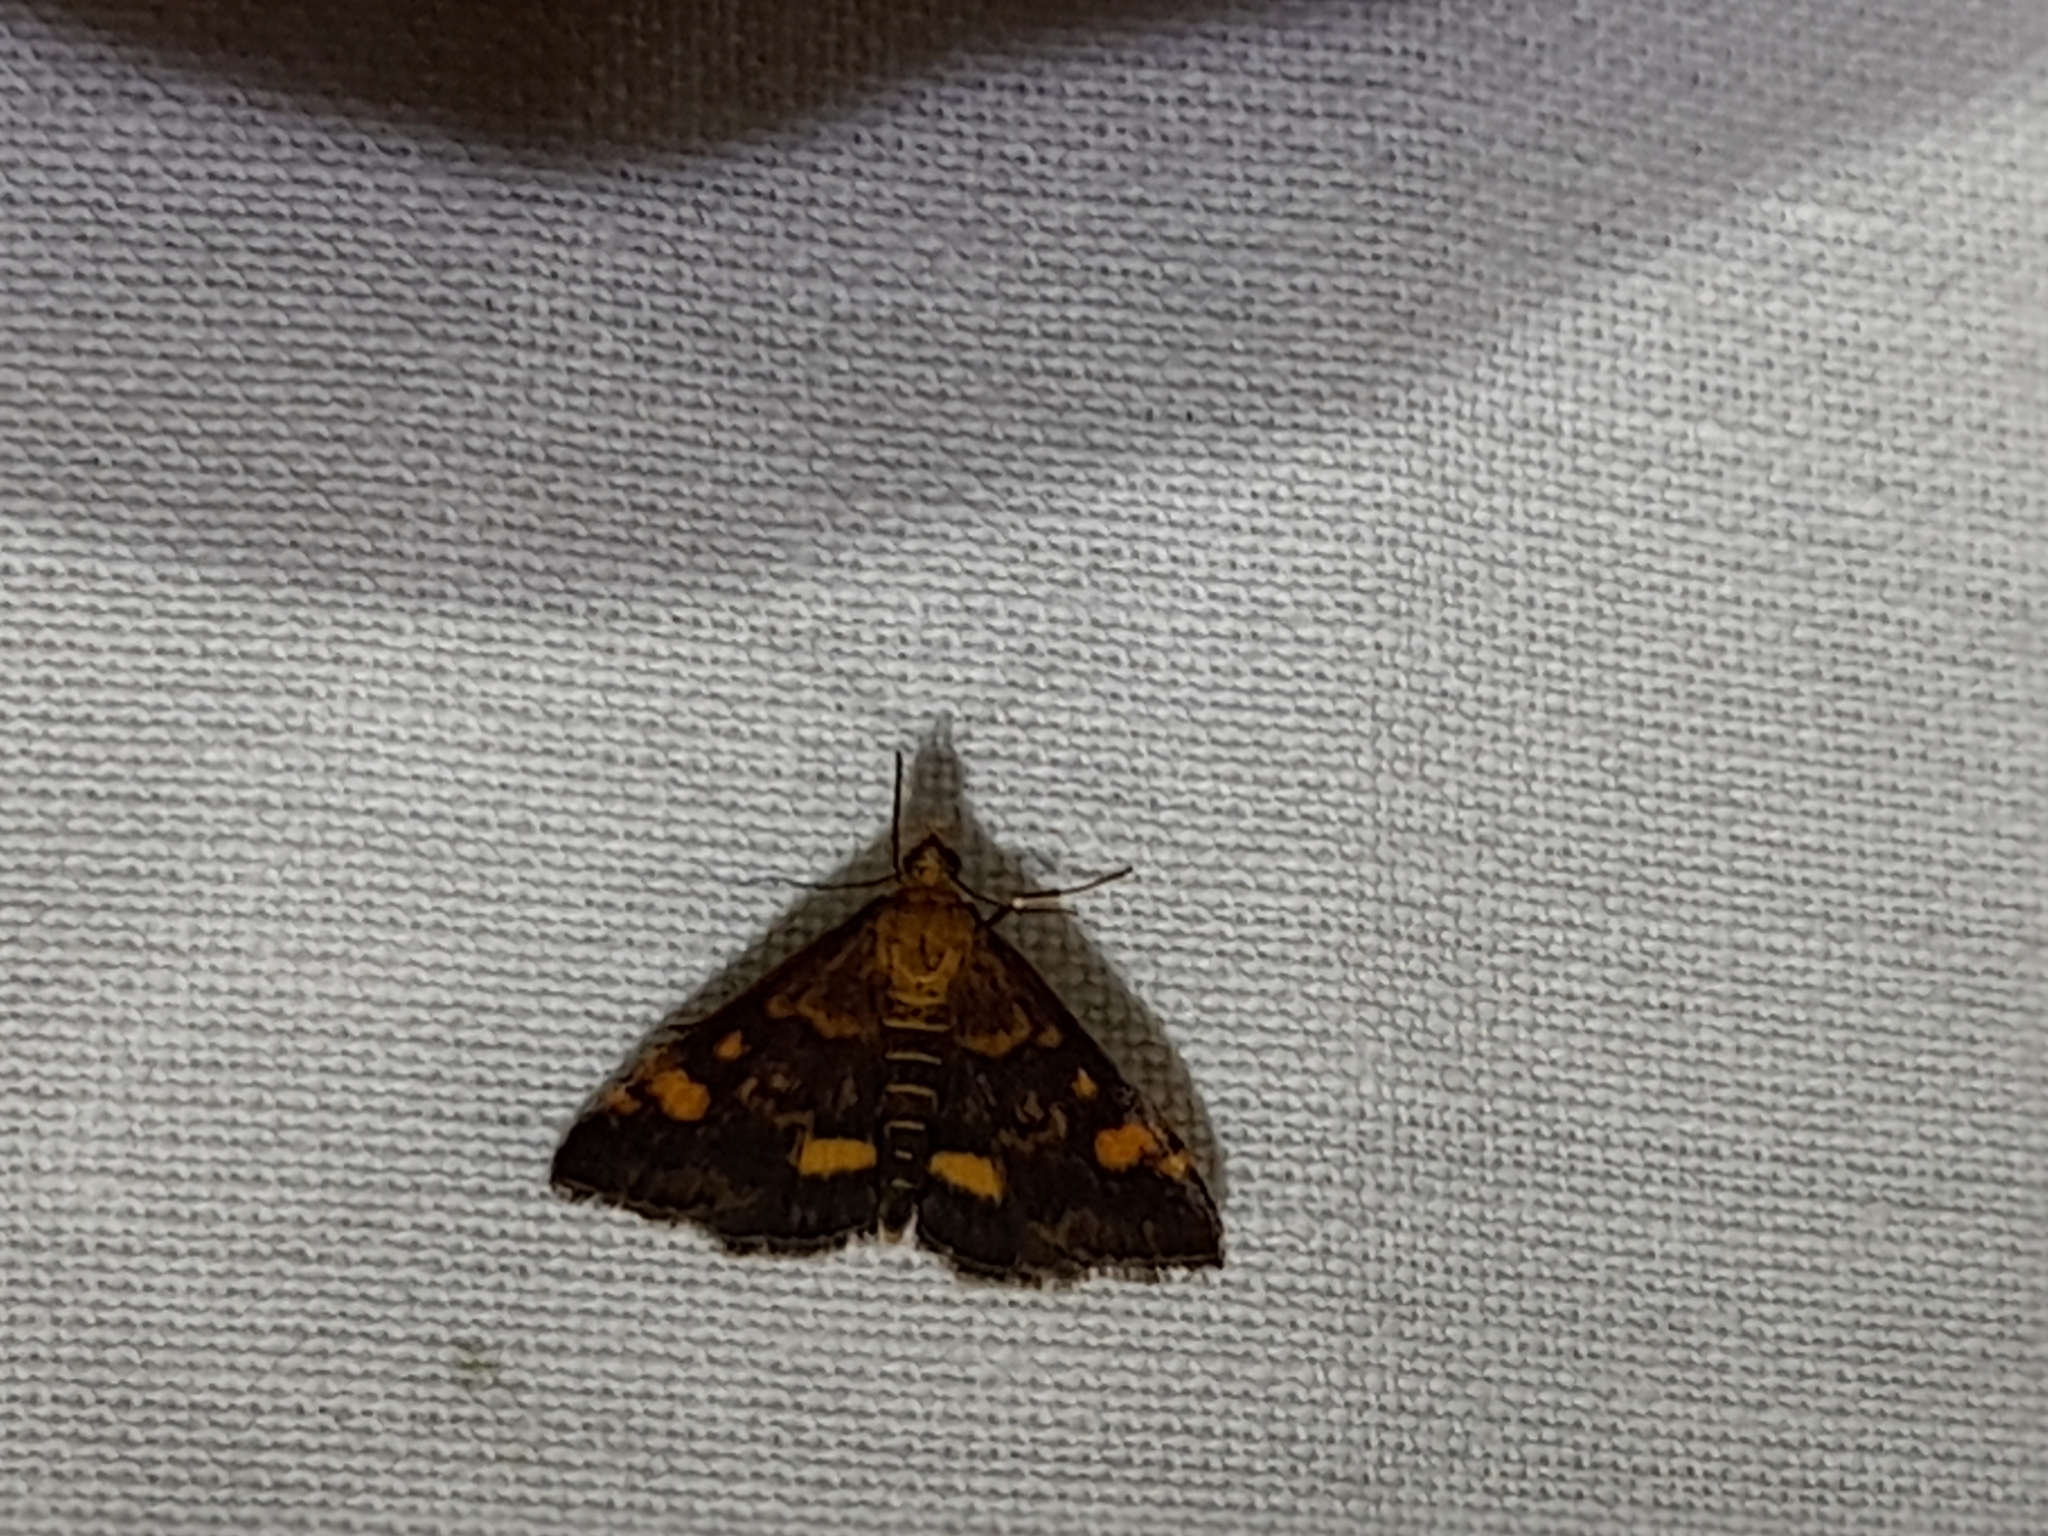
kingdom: Animalia
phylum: Arthropoda
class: Insecta
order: Lepidoptera
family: Crambidae
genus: Pyrausta
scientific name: Pyrausta aurata
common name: Small purple & gold
